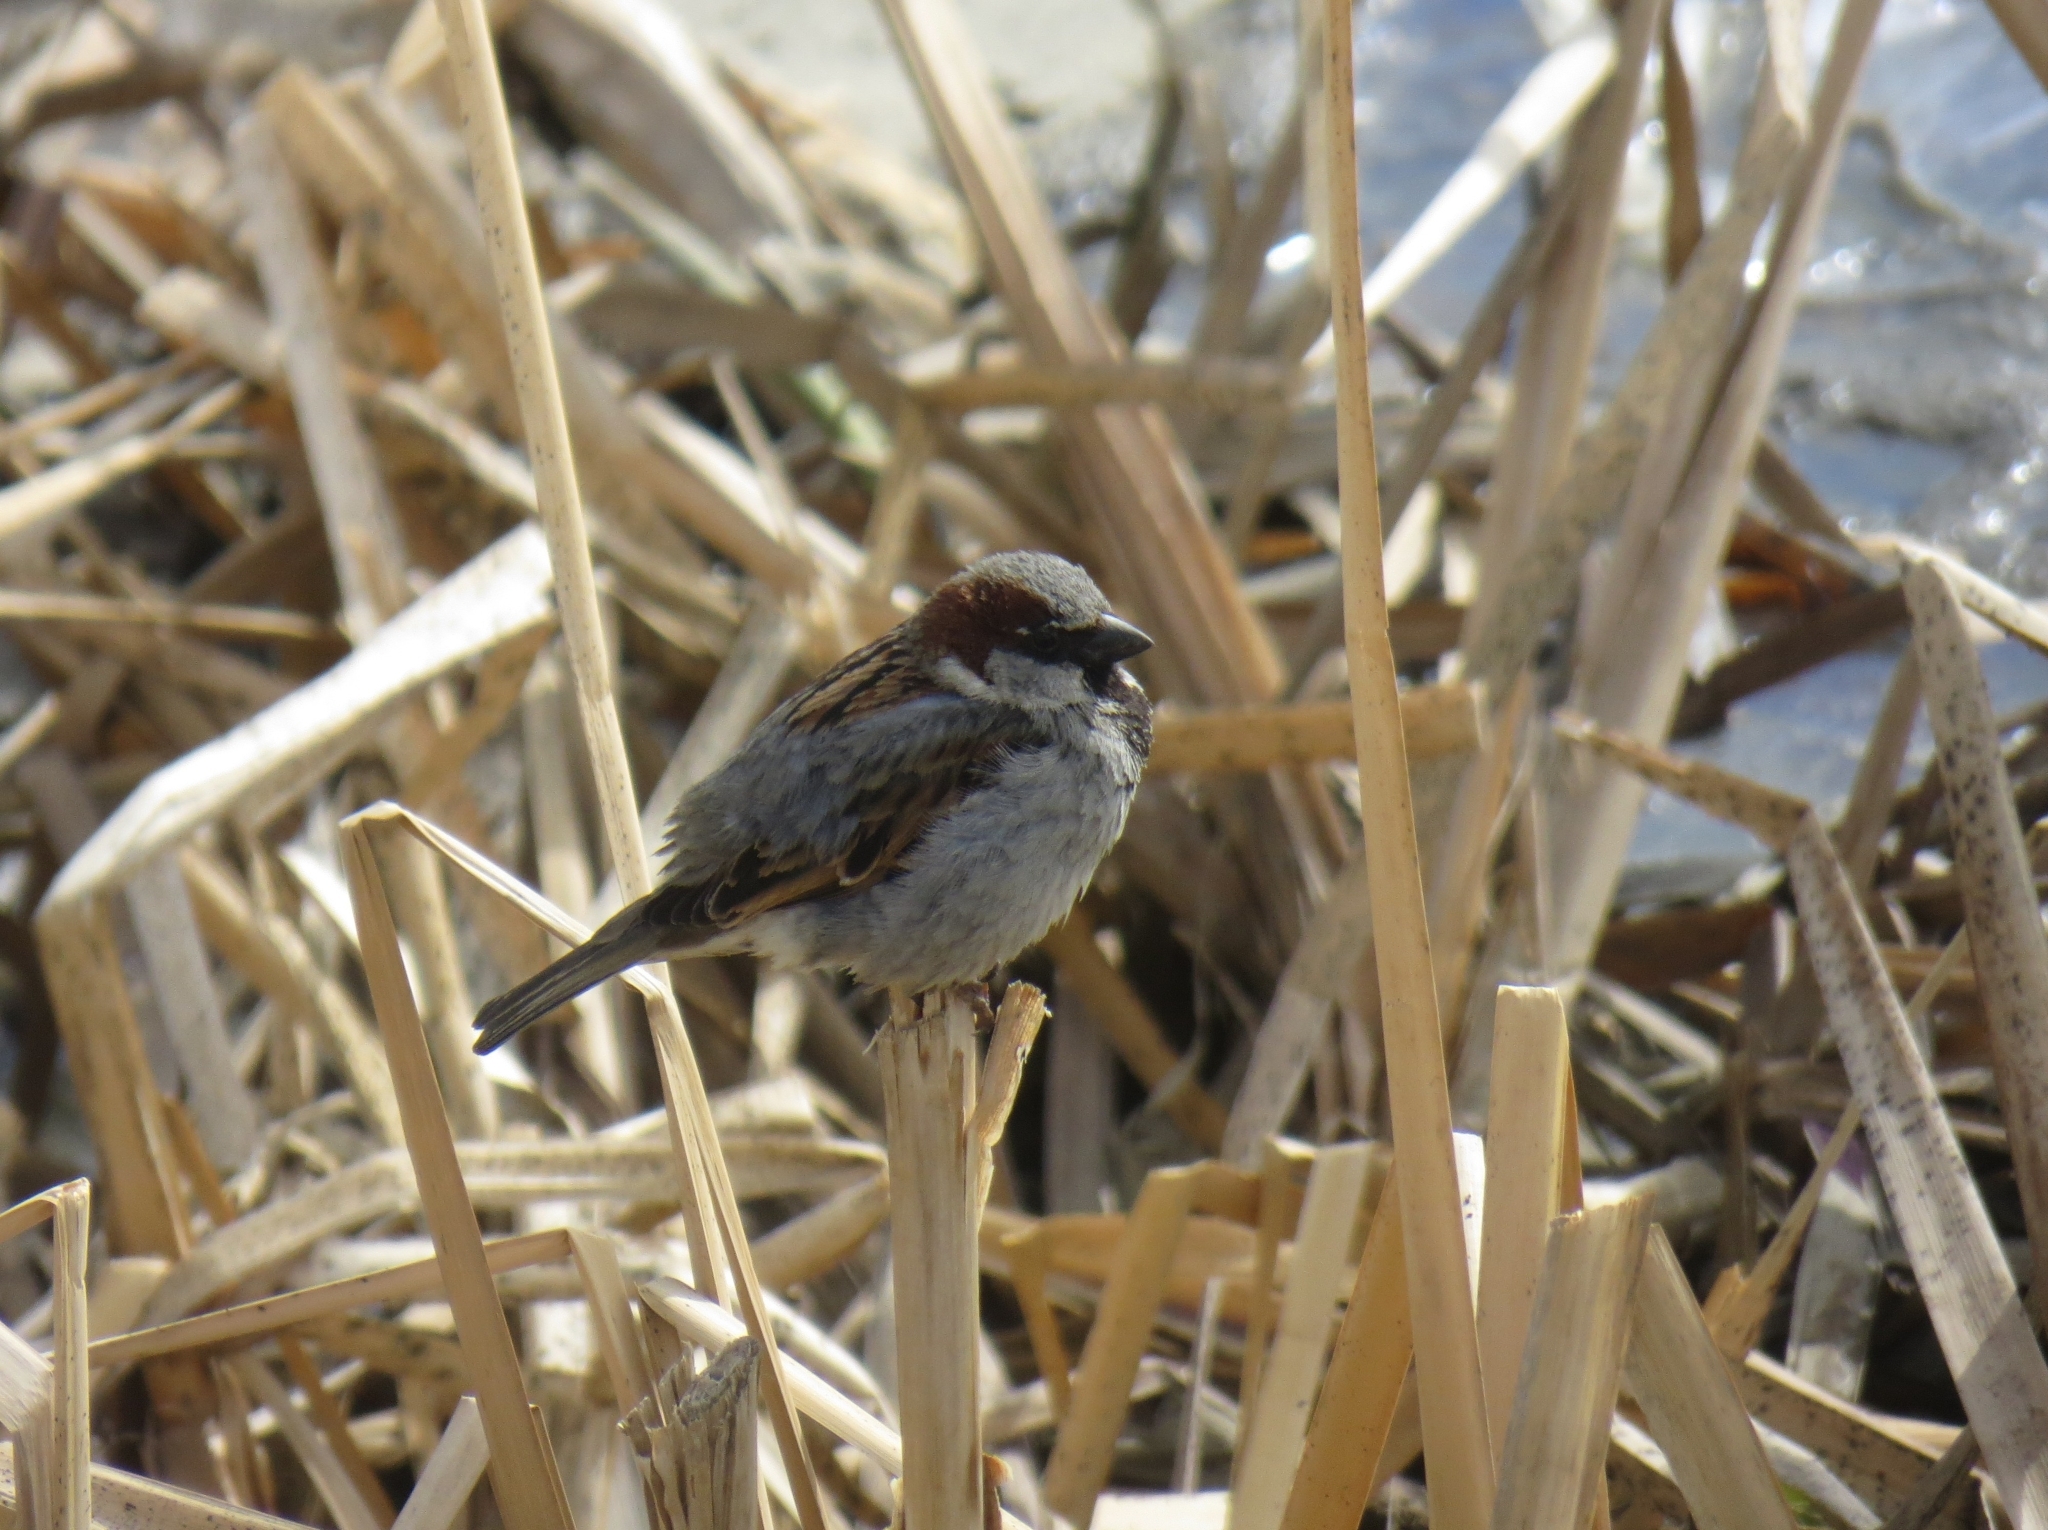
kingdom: Animalia
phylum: Chordata
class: Aves
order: Passeriformes
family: Passeridae
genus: Passer
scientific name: Passer domesticus
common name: House sparrow
